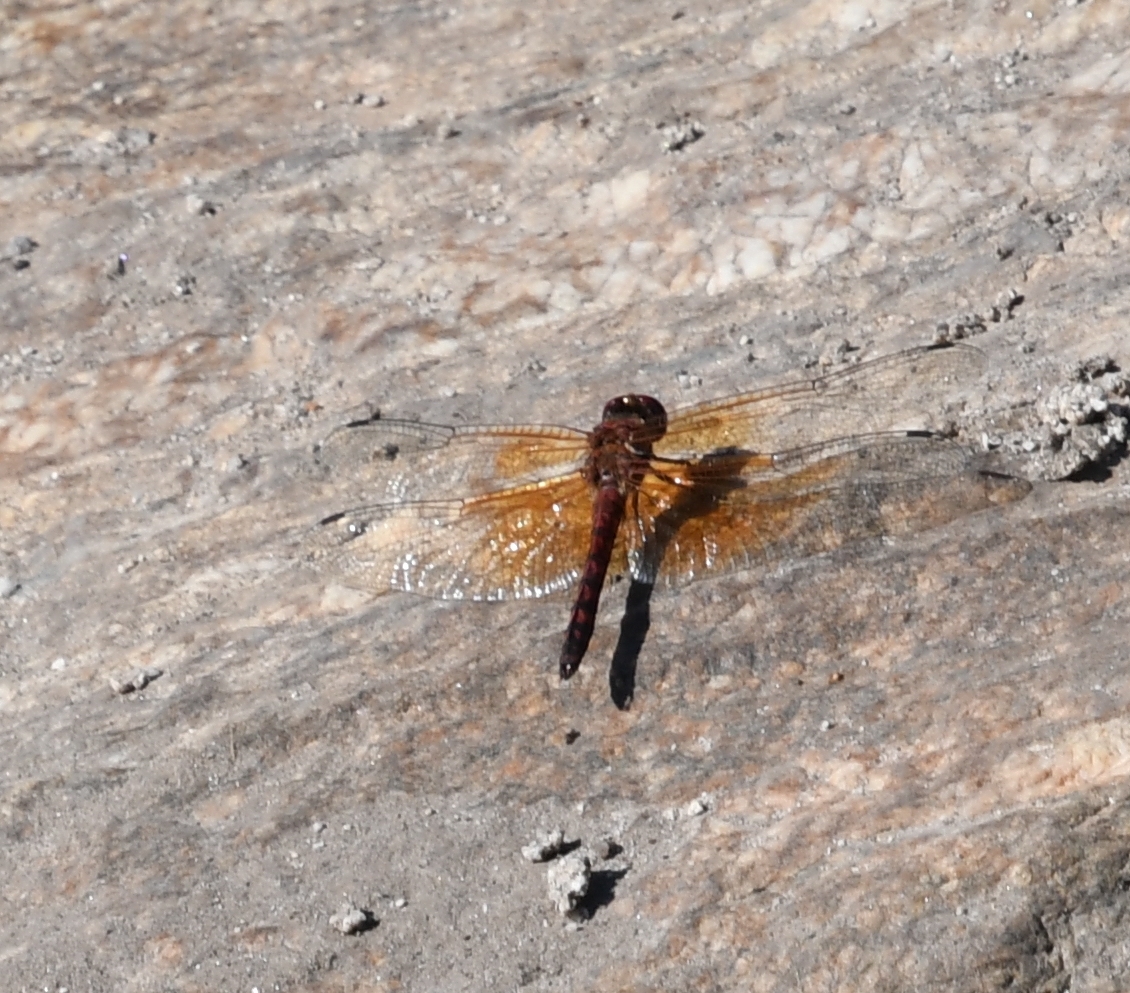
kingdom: Animalia
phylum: Arthropoda
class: Insecta
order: Odonata
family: Libellulidae
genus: Paltothemis
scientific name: Paltothemis lineatipes
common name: Red rock skimmer
